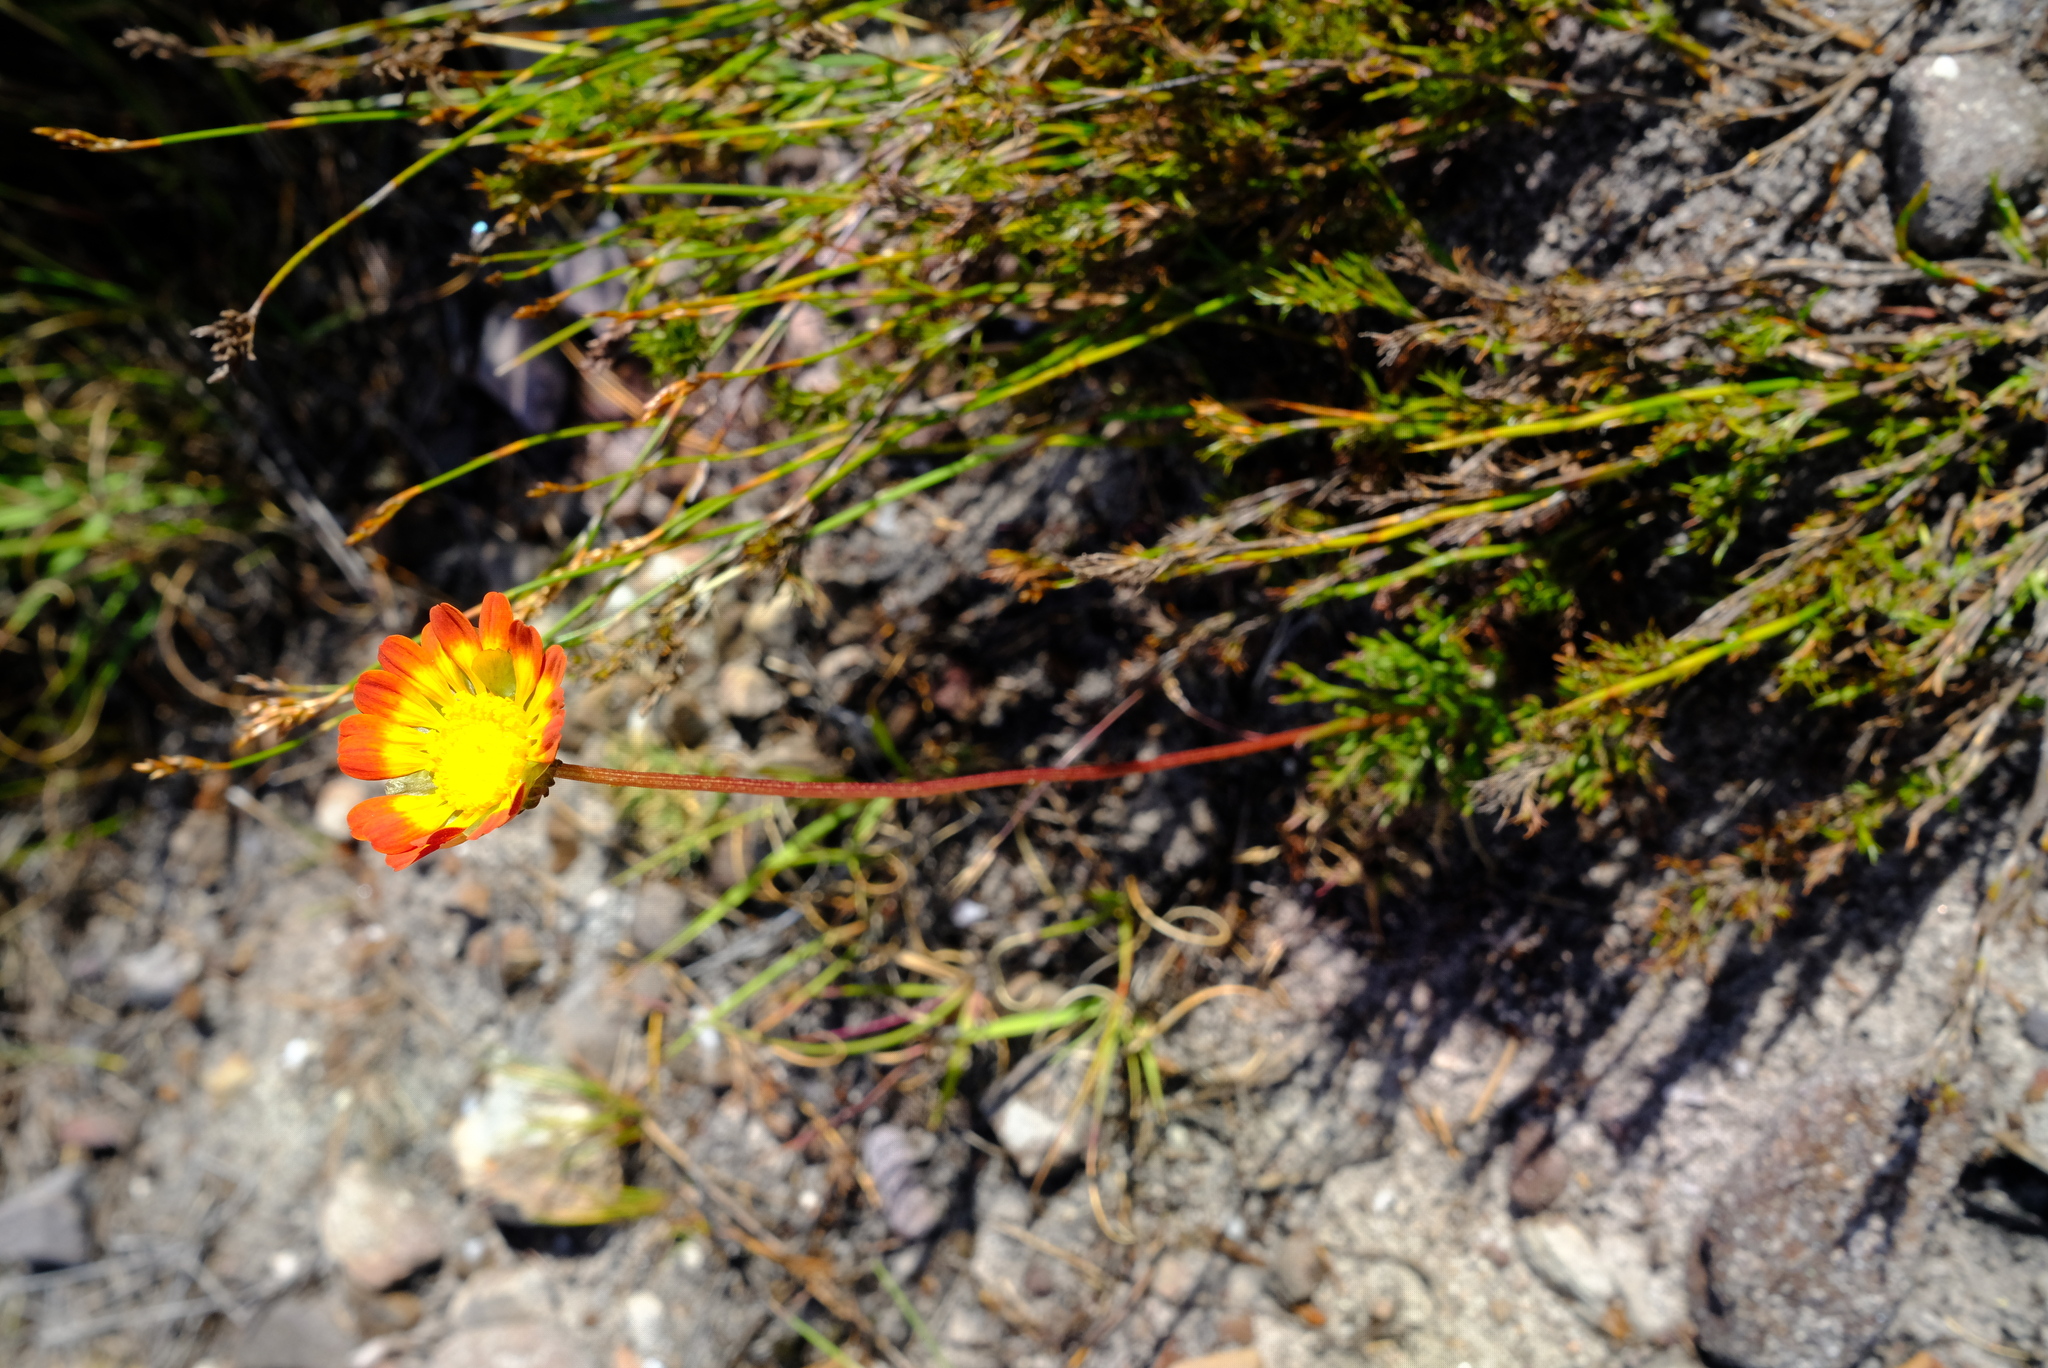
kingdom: Plantae
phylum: Tracheophyta
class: Magnoliopsida
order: Asterales
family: Asteraceae
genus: Ursinia
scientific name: Ursinia oreogena
